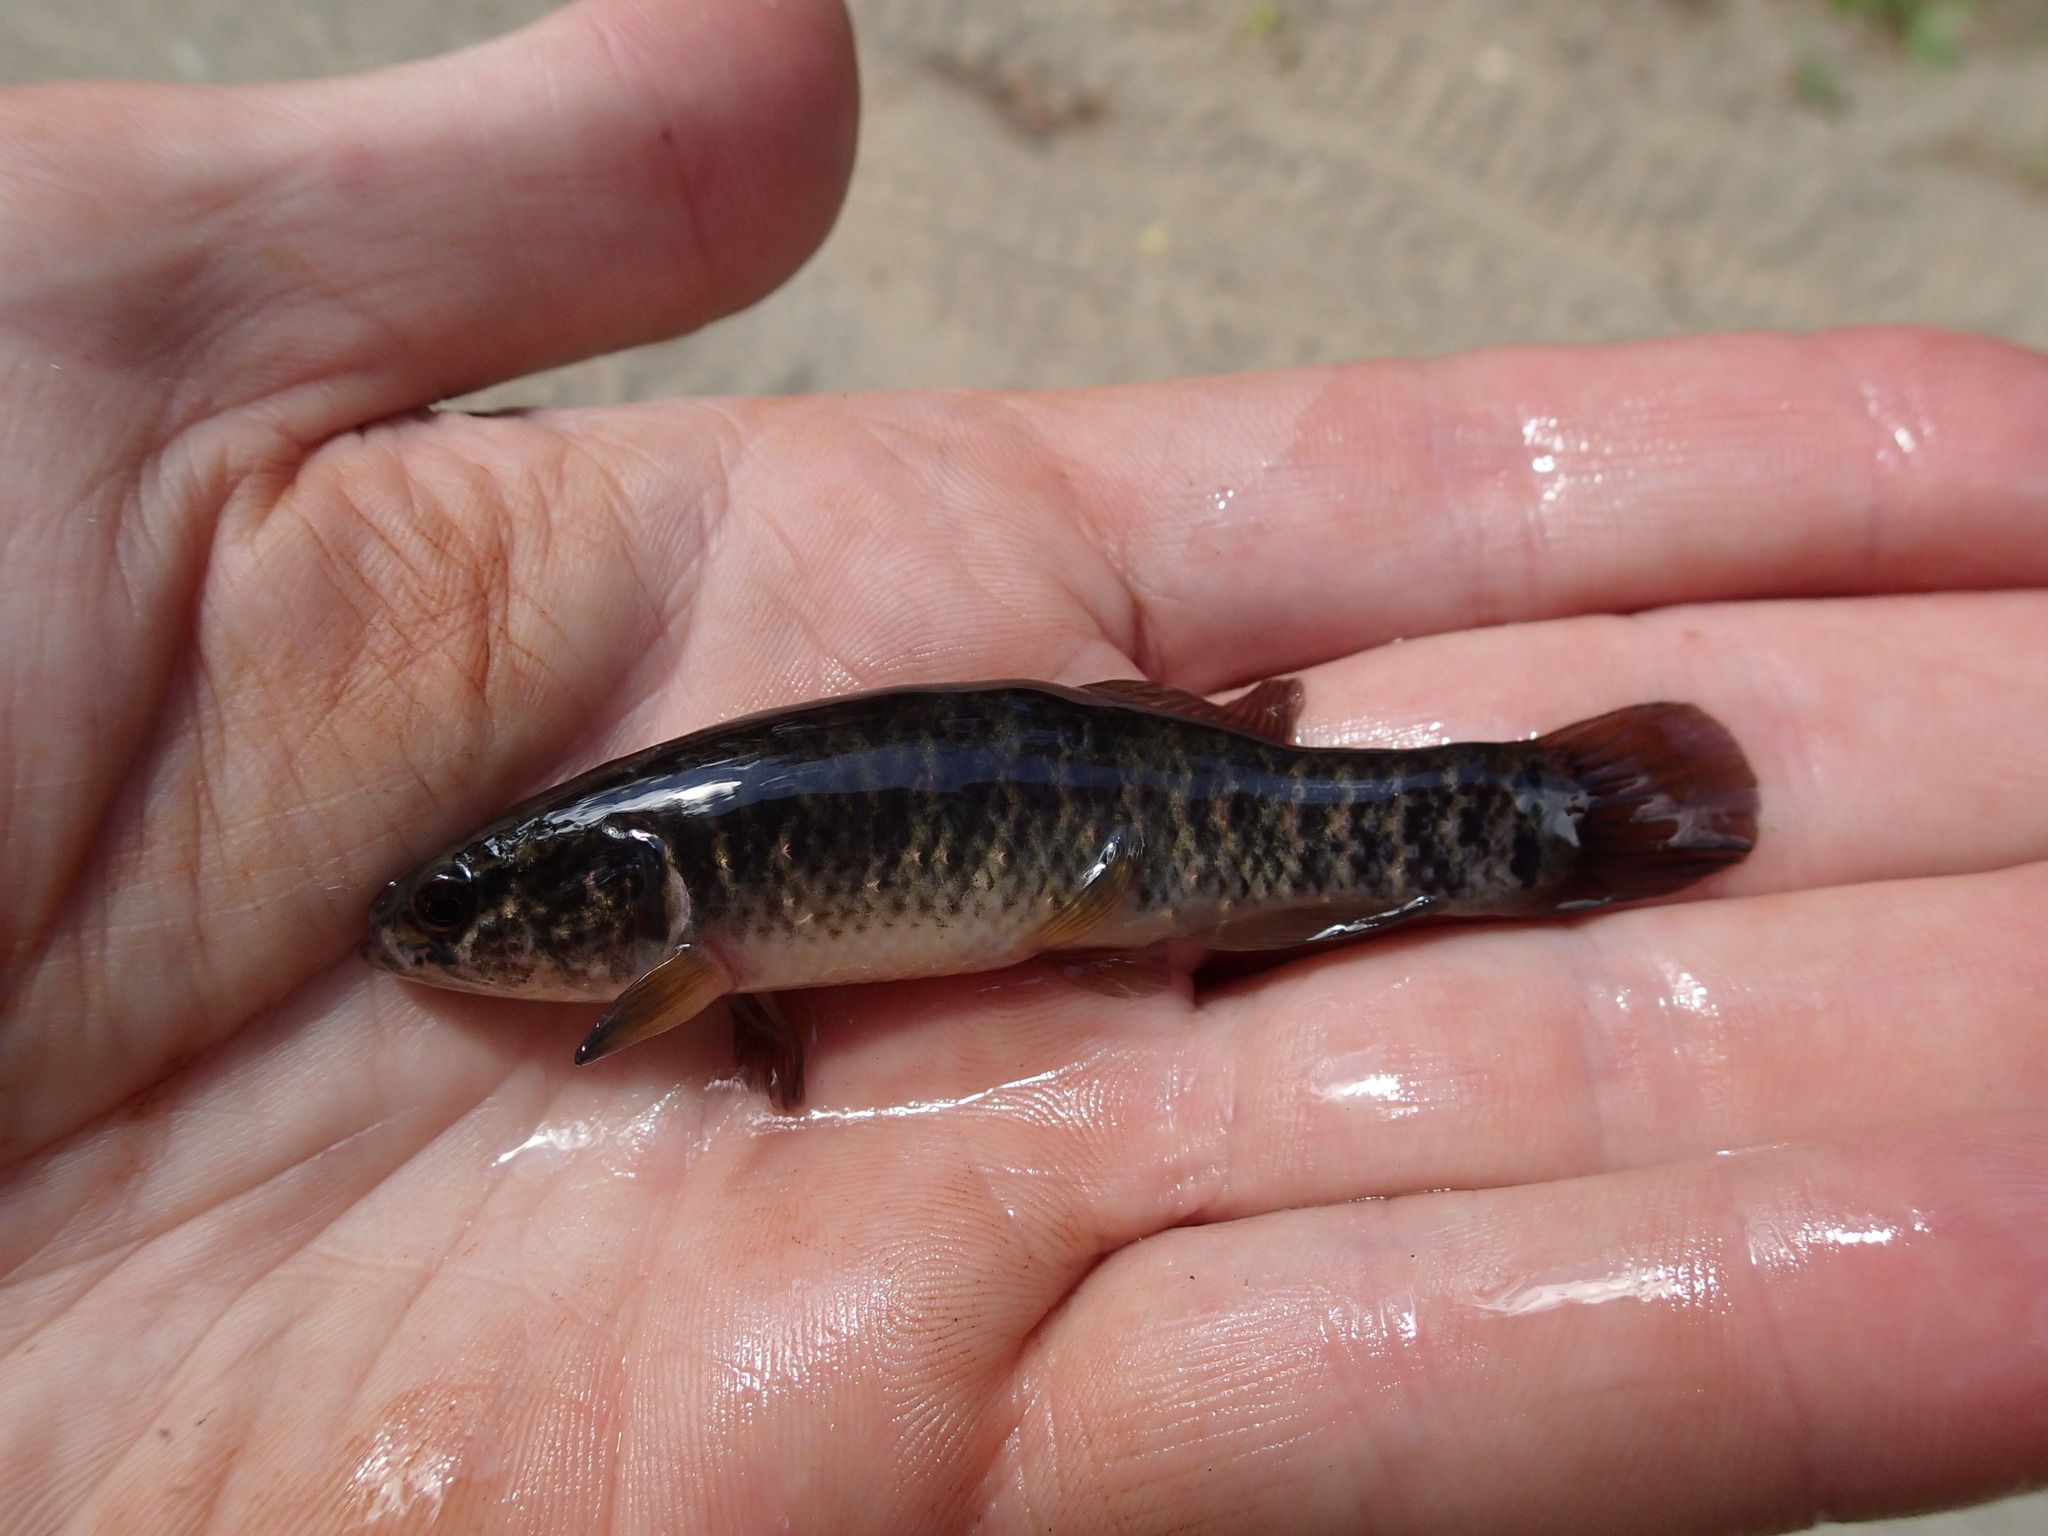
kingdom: Animalia
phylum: Chordata
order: Esociformes
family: Umbridae
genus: Umbra
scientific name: Umbra limi
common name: Central mudminnow
